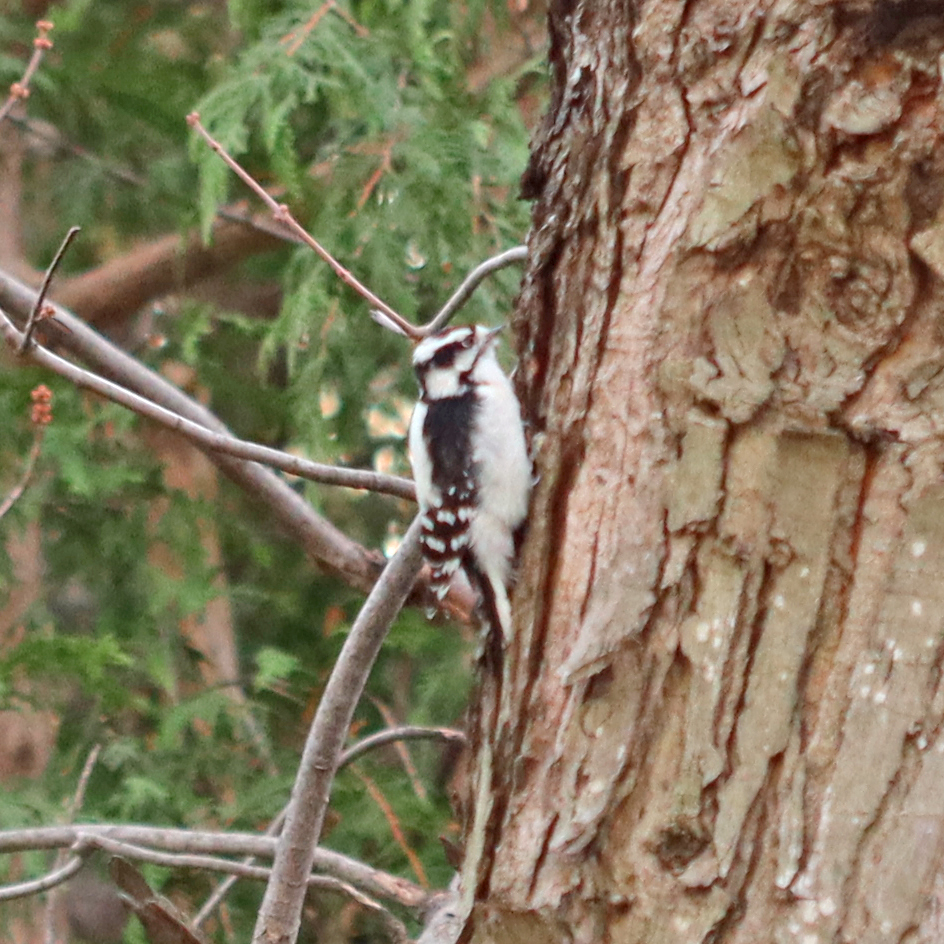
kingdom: Animalia
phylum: Chordata
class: Aves
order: Piciformes
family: Picidae
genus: Dryobates
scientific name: Dryobates pubescens
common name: Downy woodpecker
